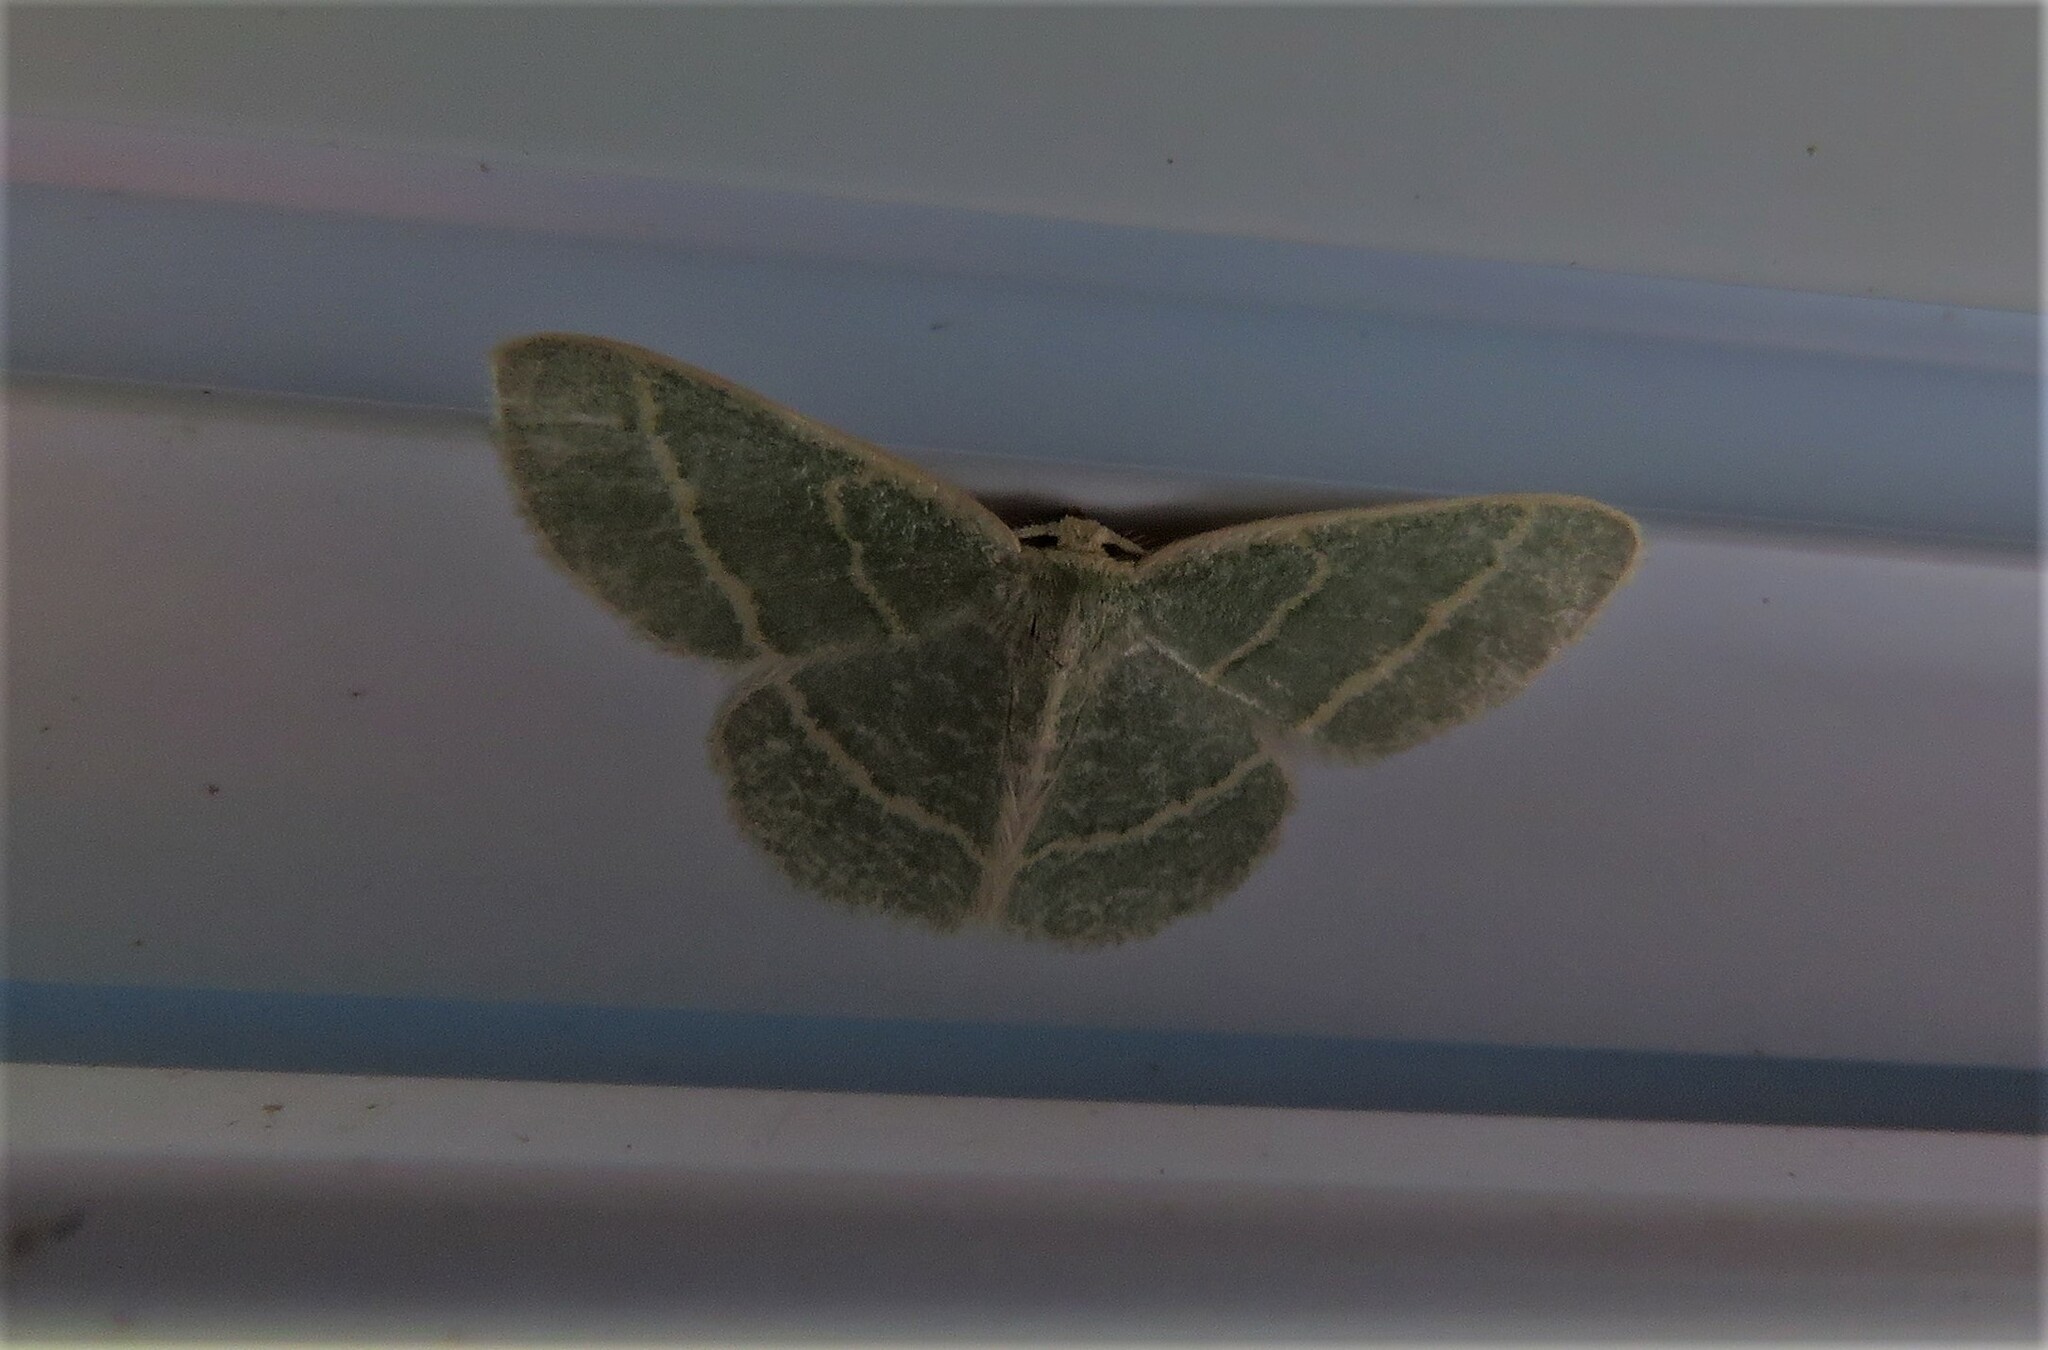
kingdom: Animalia
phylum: Arthropoda
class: Insecta
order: Lepidoptera
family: Geometridae
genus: Chlorochlamys
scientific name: Chlorochlamys chloroleucaria
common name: Blackberry looper
